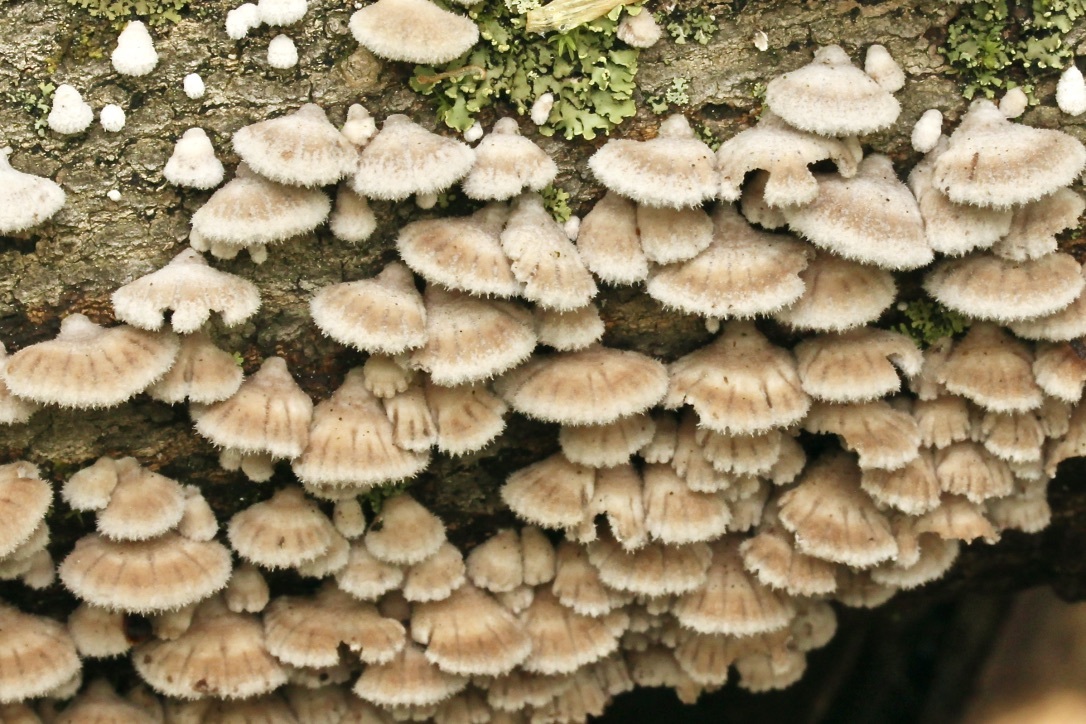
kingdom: Fungi
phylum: Basidiomycota
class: Agaricomycetes
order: Agaricales
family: Schizophyllaceae
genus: Schizophyllum
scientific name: Schizophyllum commune
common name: Common porecrust
